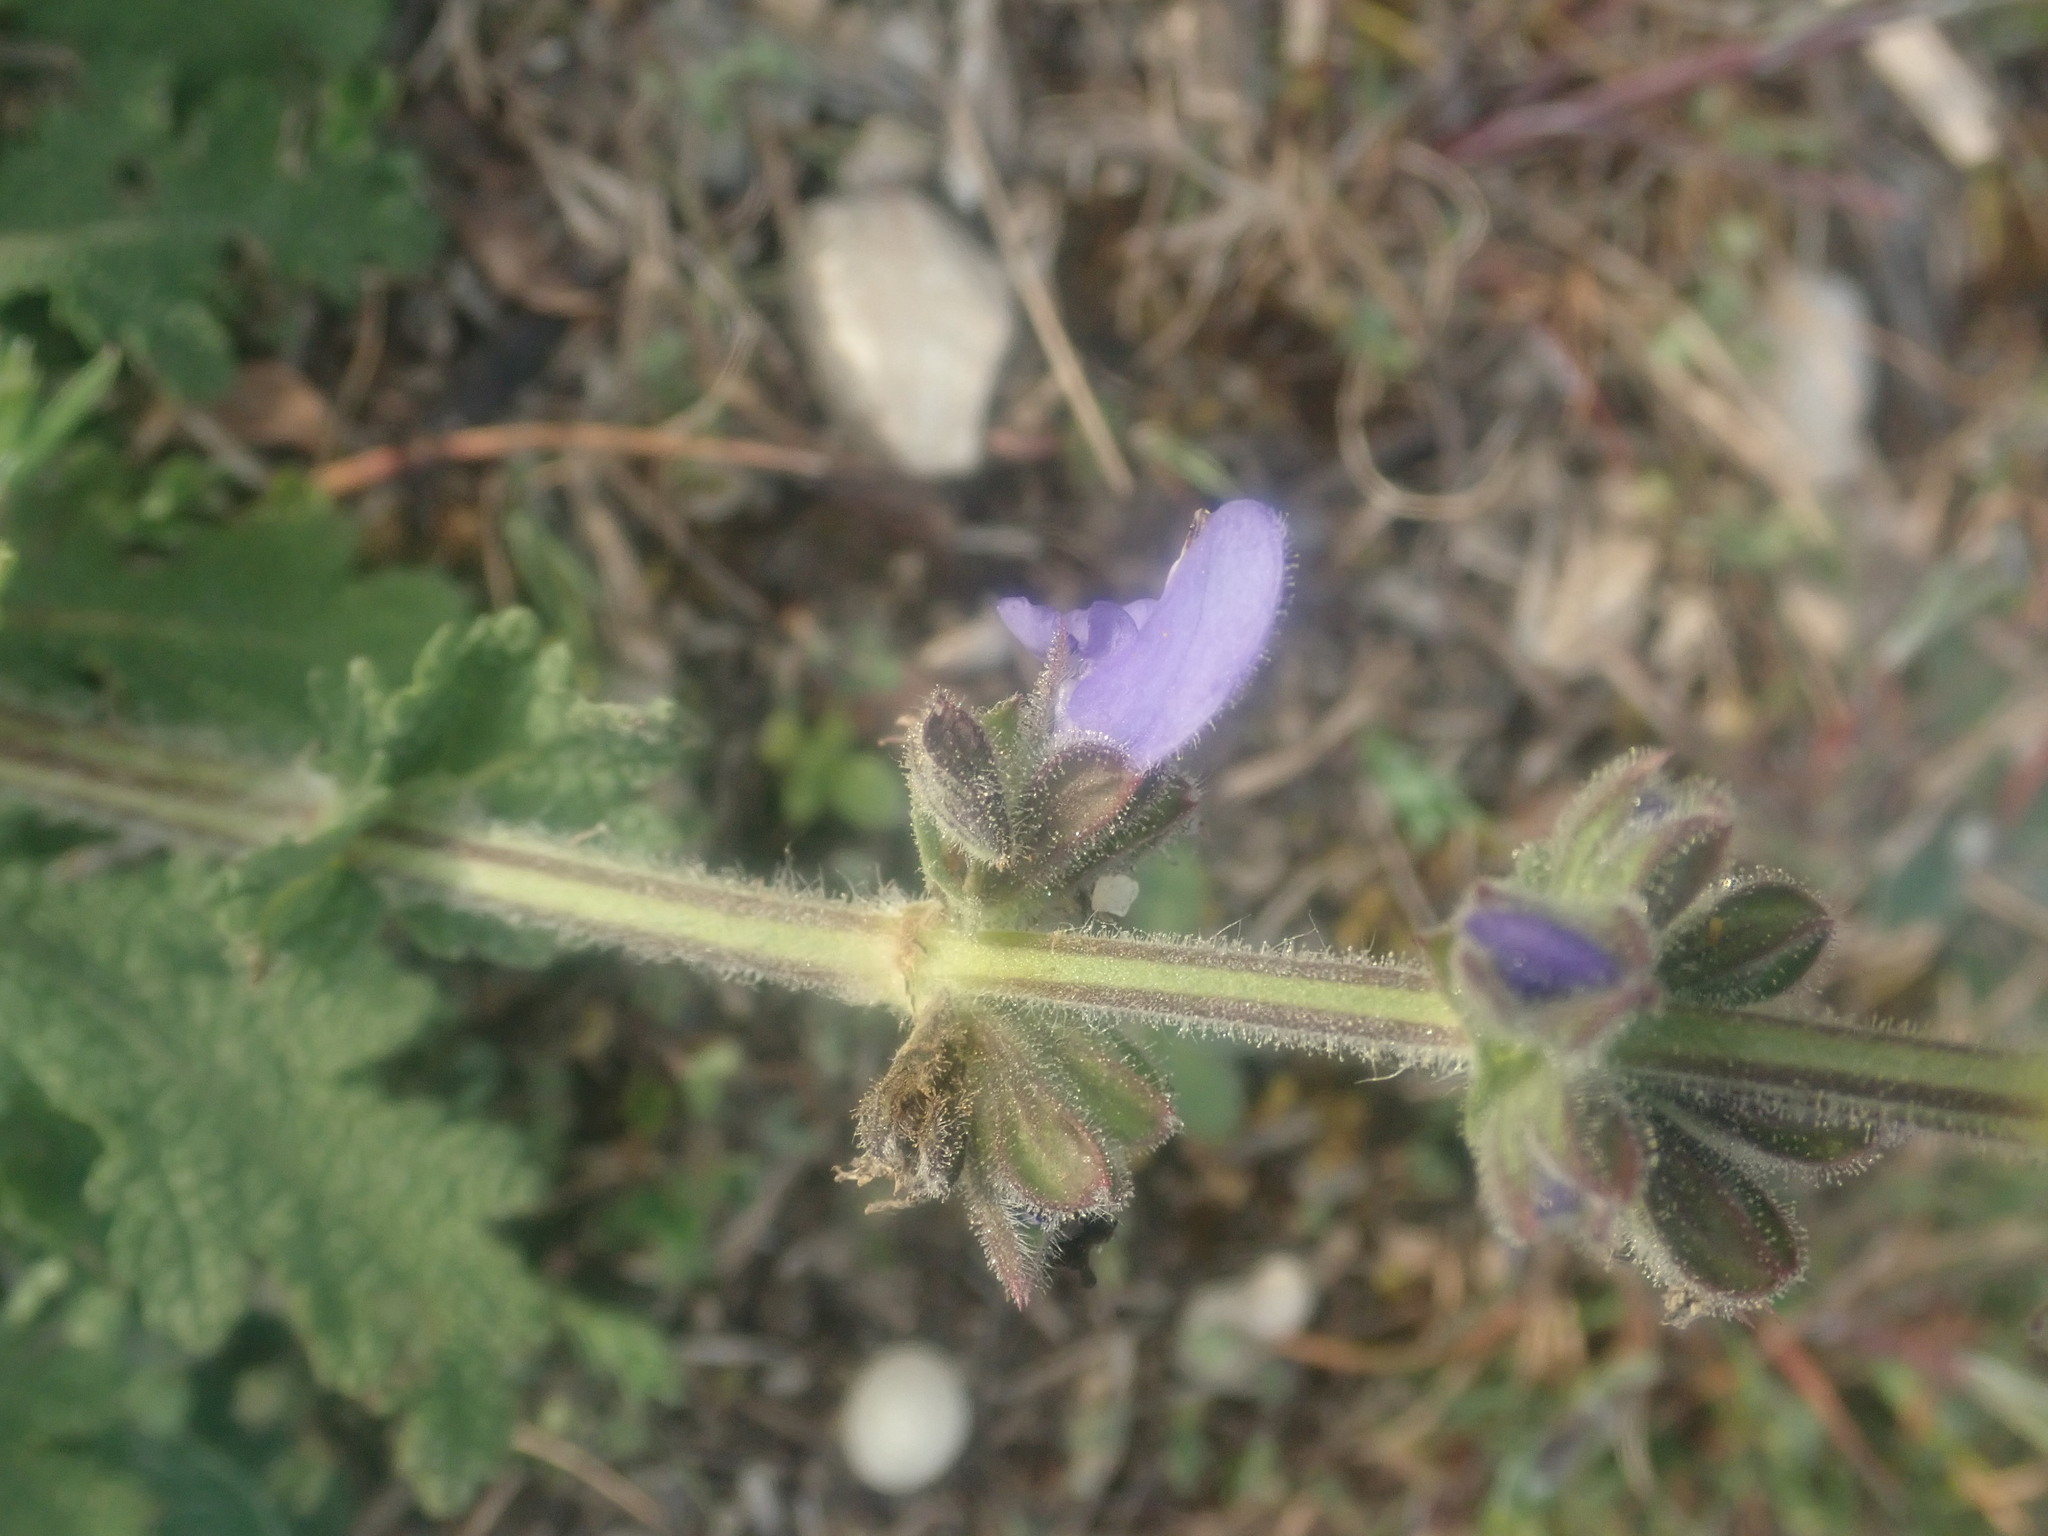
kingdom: Plantae
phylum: Tracheophyta
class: Magnoliopsida
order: Lamiales
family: Lamiaceae
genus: Salvia
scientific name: Salvia verbenaca
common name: Wild clary
